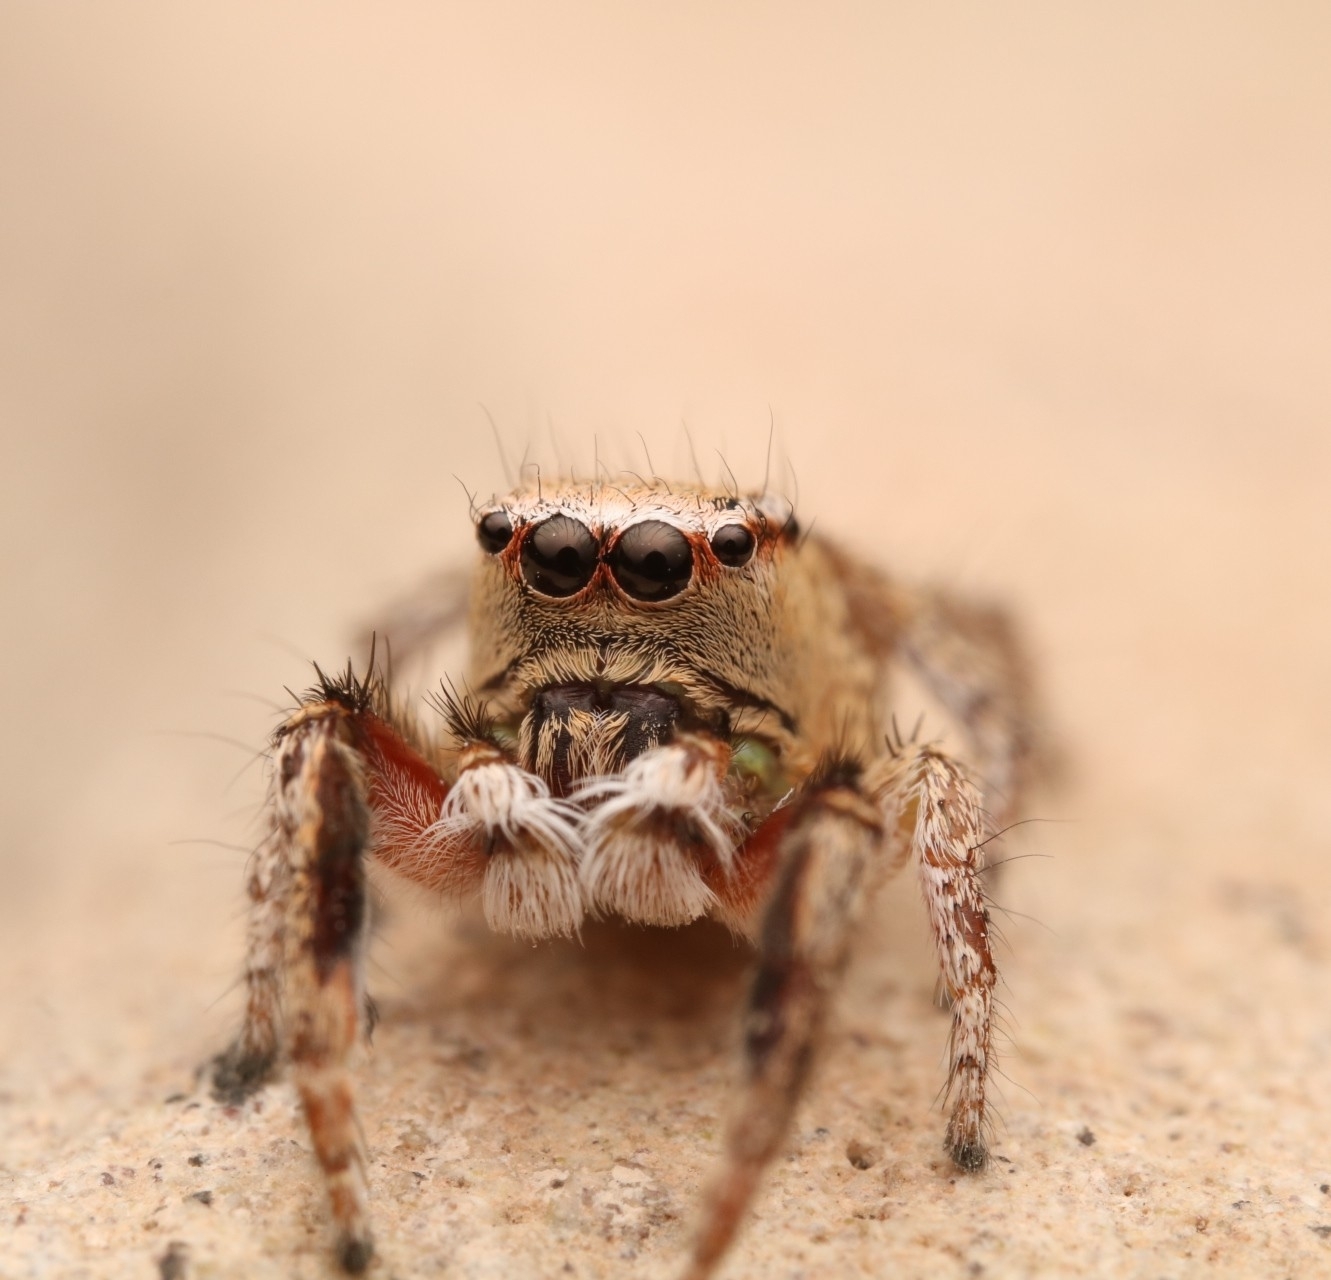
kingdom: Animalia
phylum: Arthropoda
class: Arachnida
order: Araneae
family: Salticidae
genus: Habronattus
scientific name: Habronattus tranquillus
